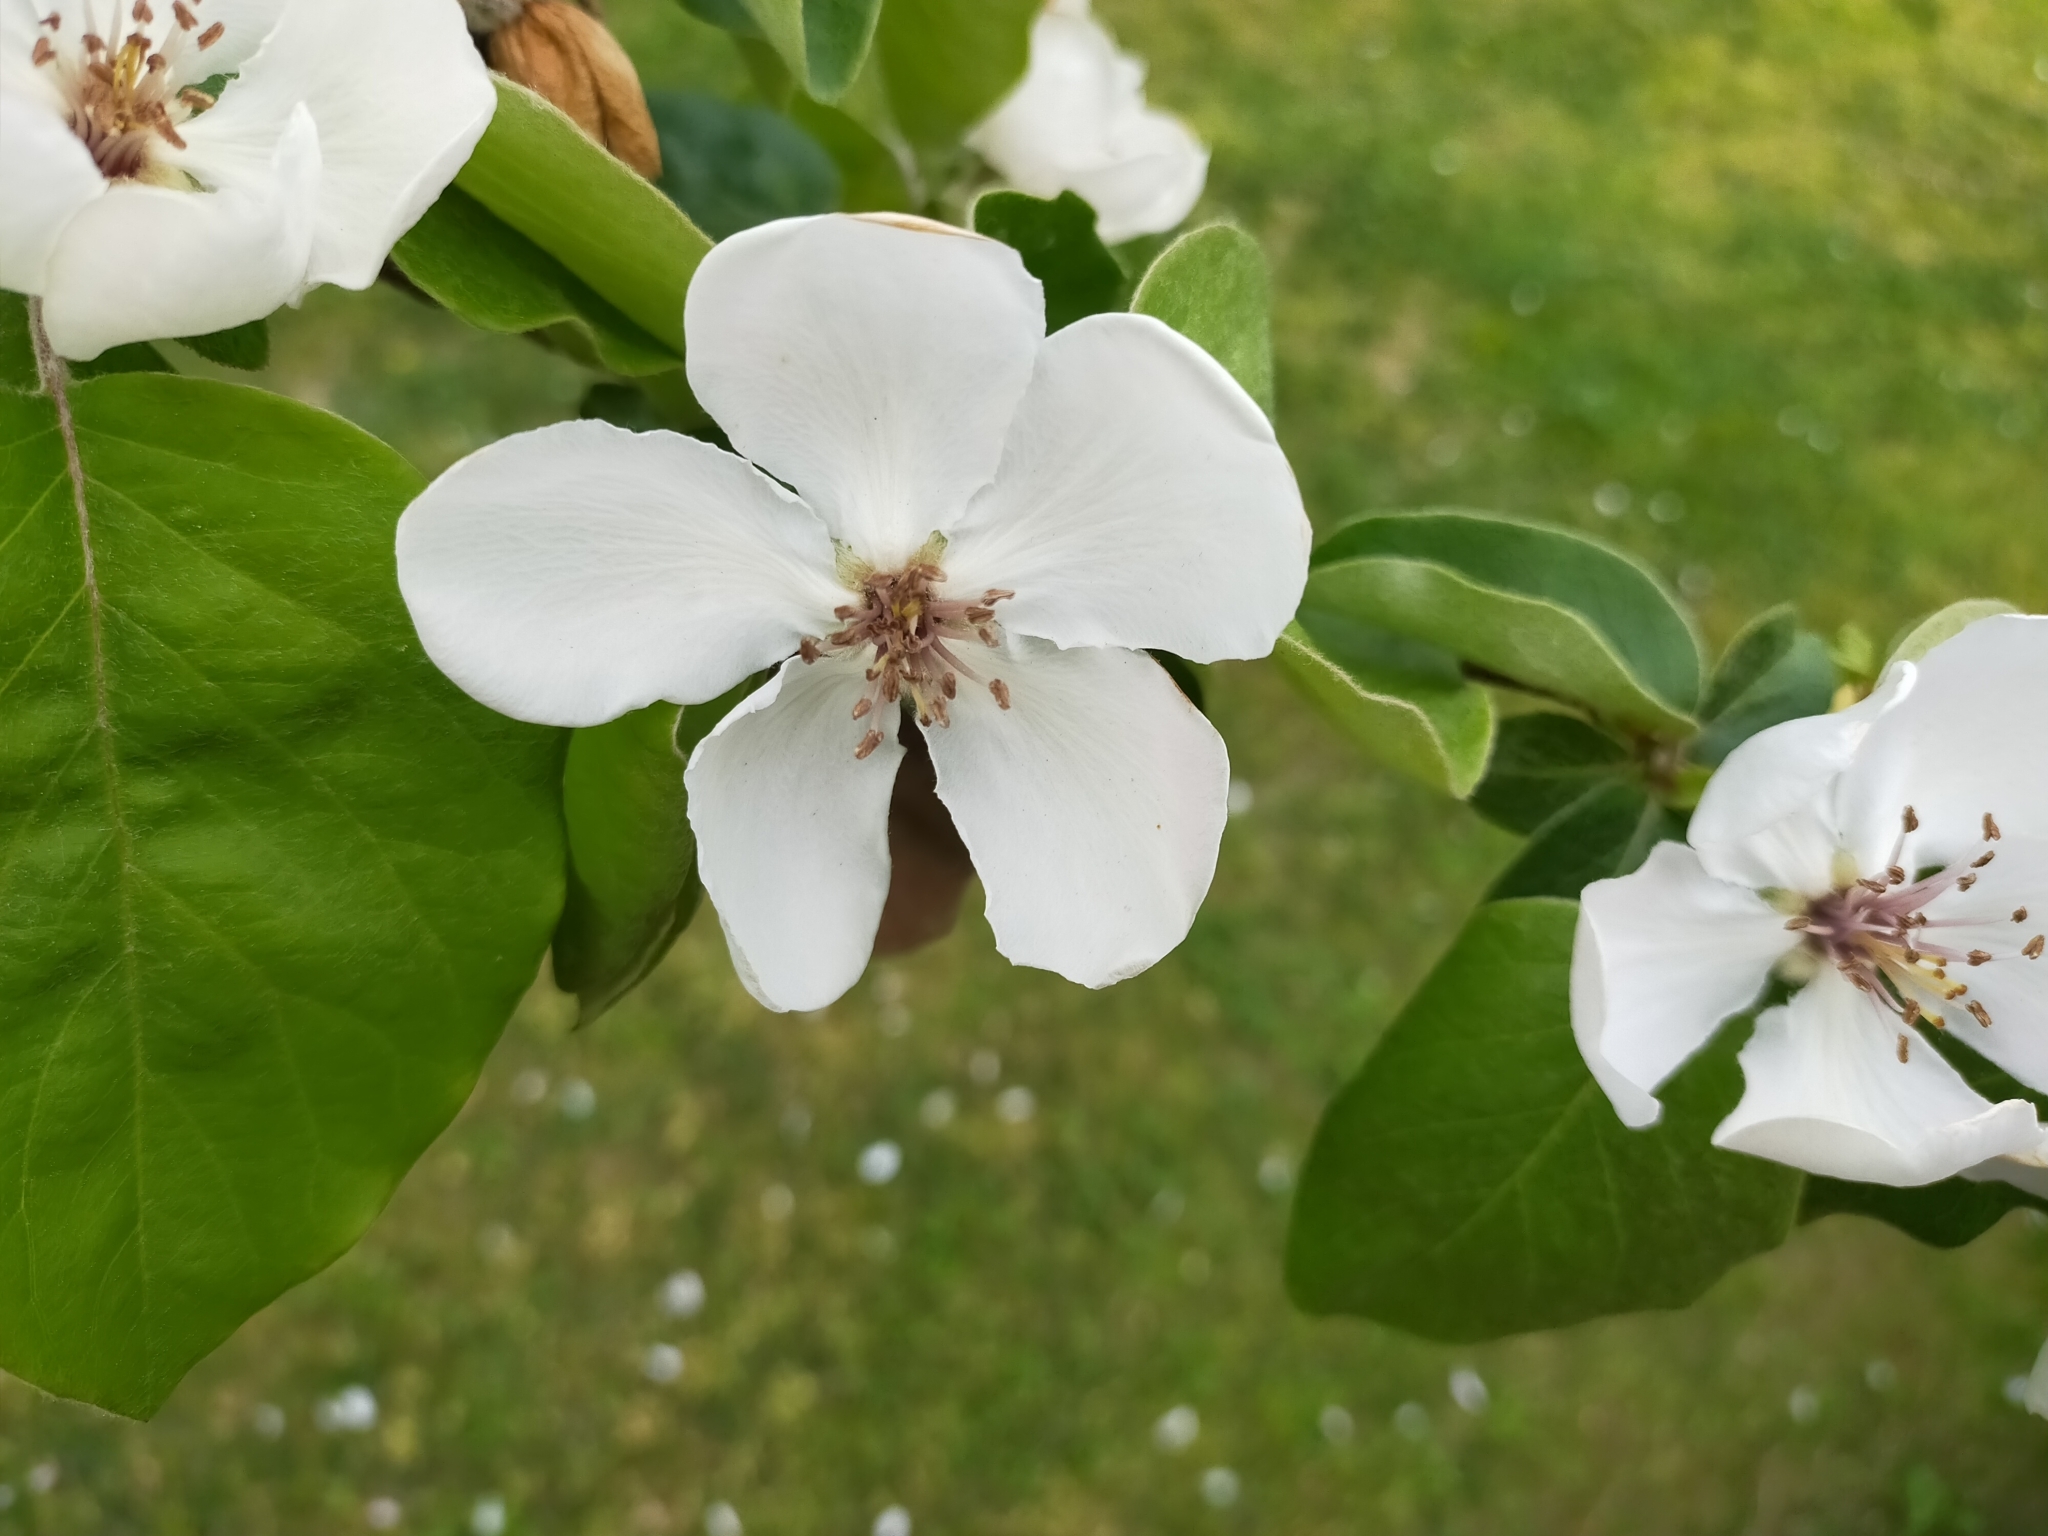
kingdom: Plantae
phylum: Tracheophyta
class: Magnoliopsida
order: Rosales
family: Rosaceae
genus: Cydonia
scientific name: Cydonia oblonga
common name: Quince
